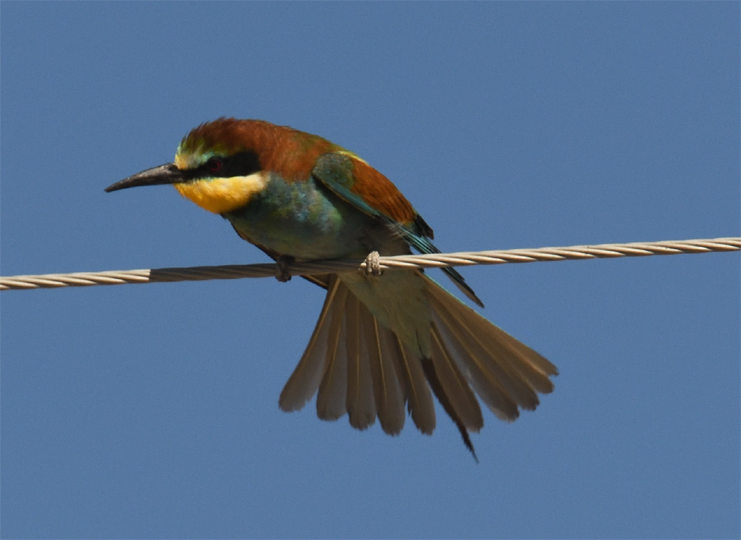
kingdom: Animalia
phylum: Chordata
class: Aves
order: Coraciiformes
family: Meropidae
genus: Merops
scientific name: Merops apiaster
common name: European bee-eater
